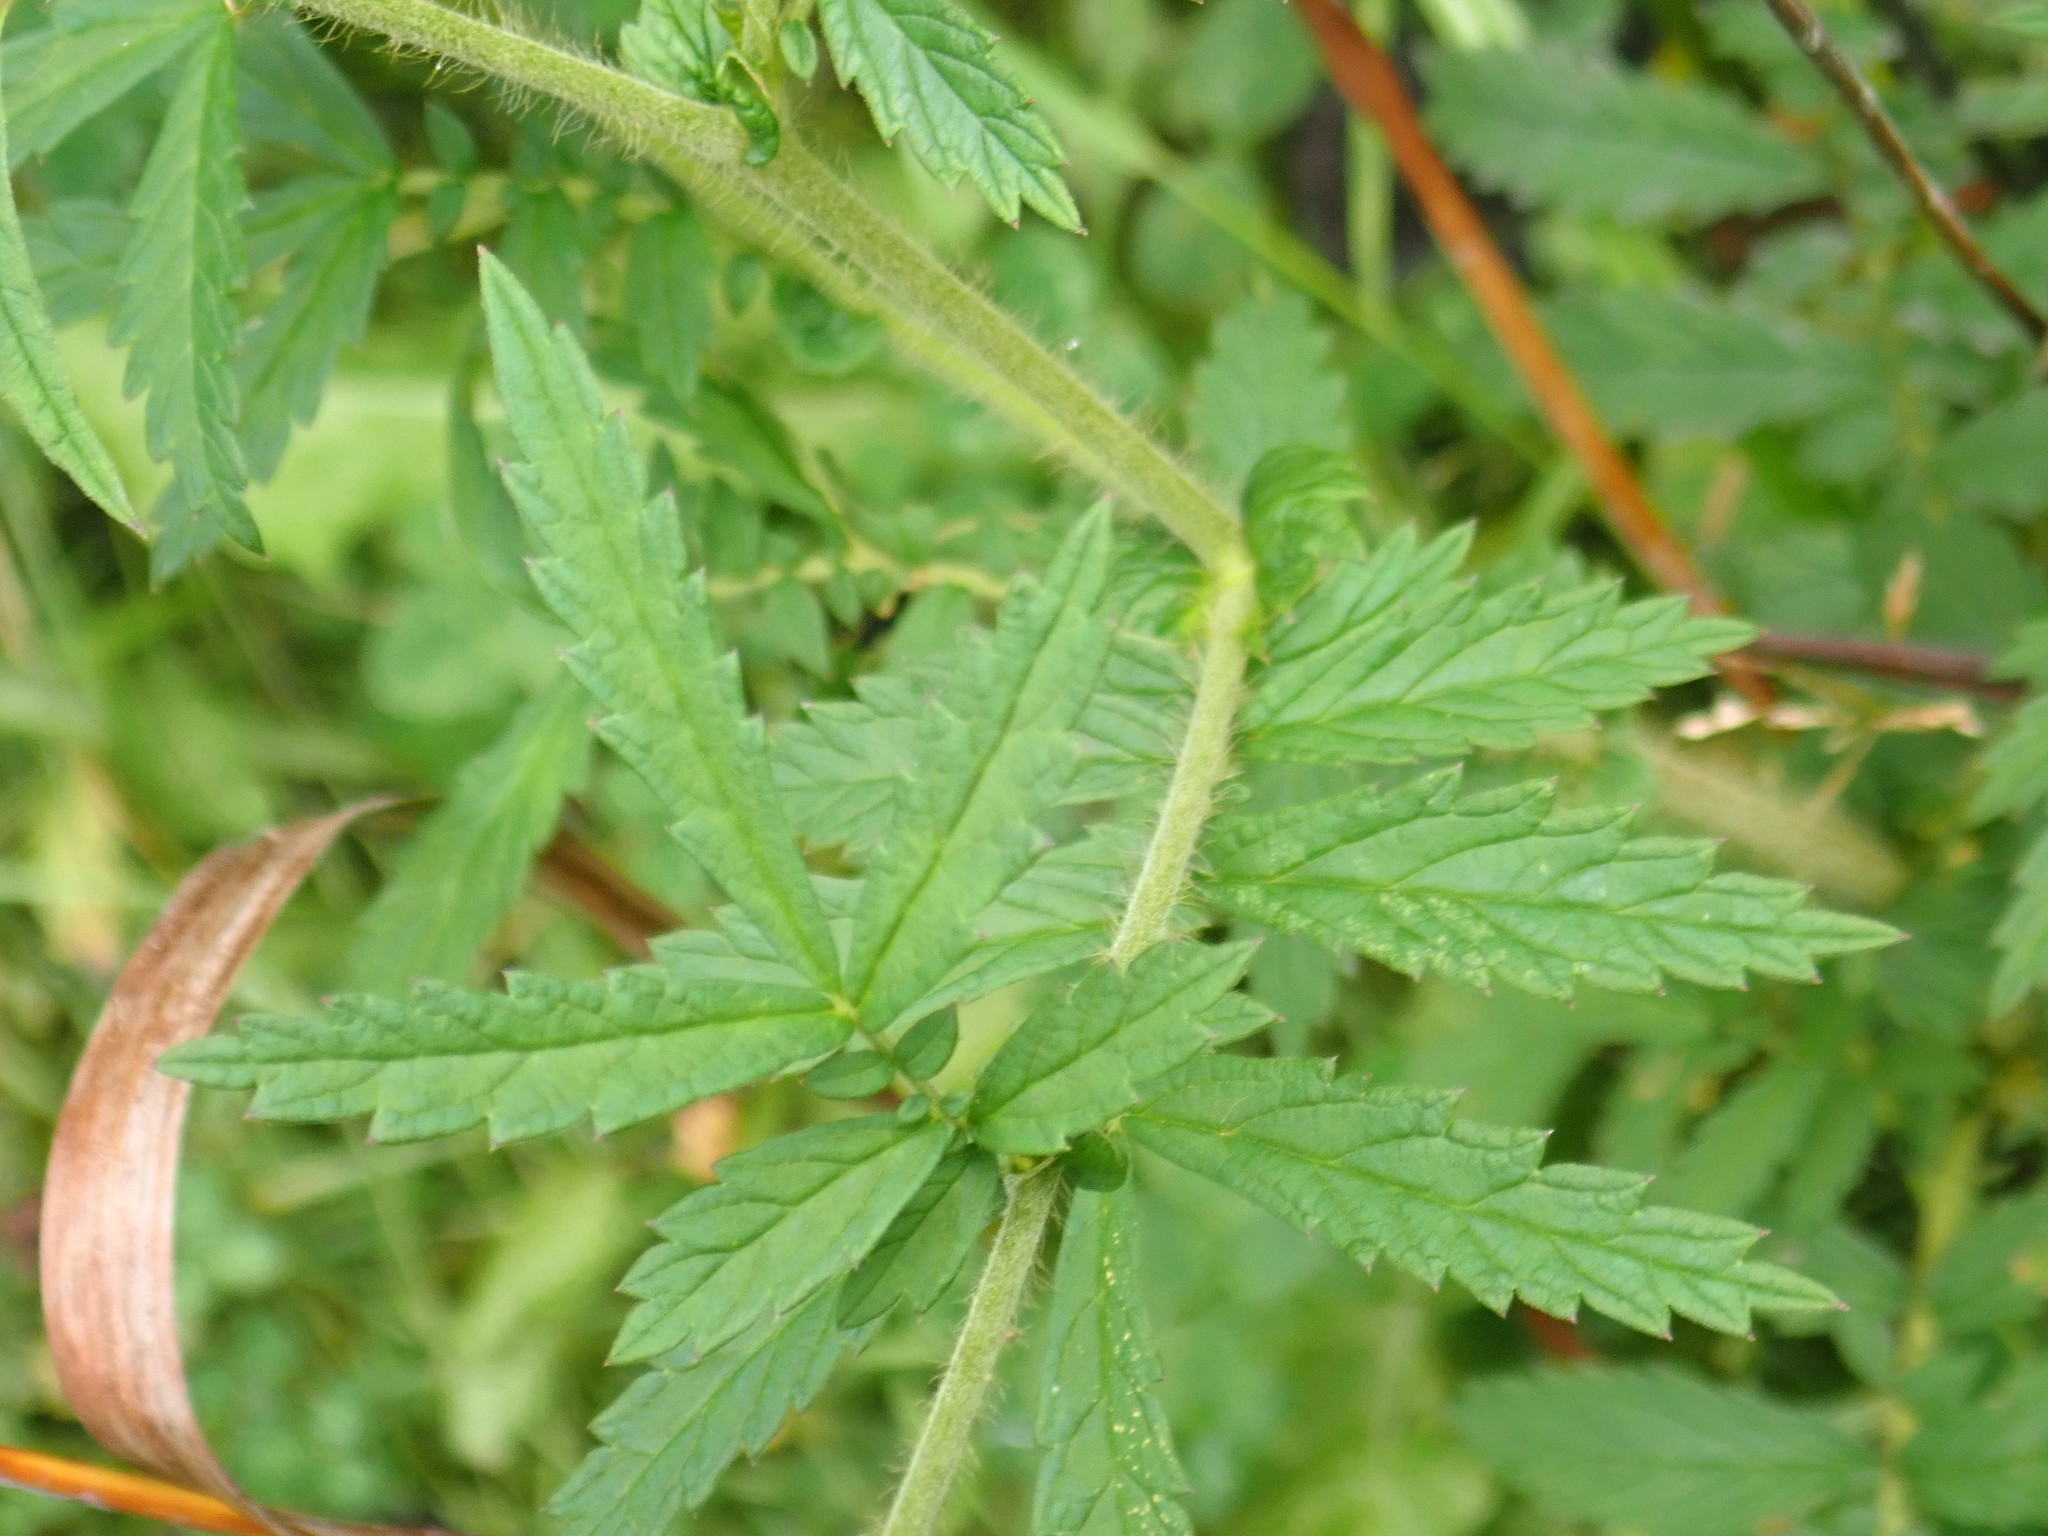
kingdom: Plantae
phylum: Tracheophyta
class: Magnoliopsida
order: Rosales
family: Rosaceae
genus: Agrimonia
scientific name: Agrimonia parviflora
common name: Harvest-lice
